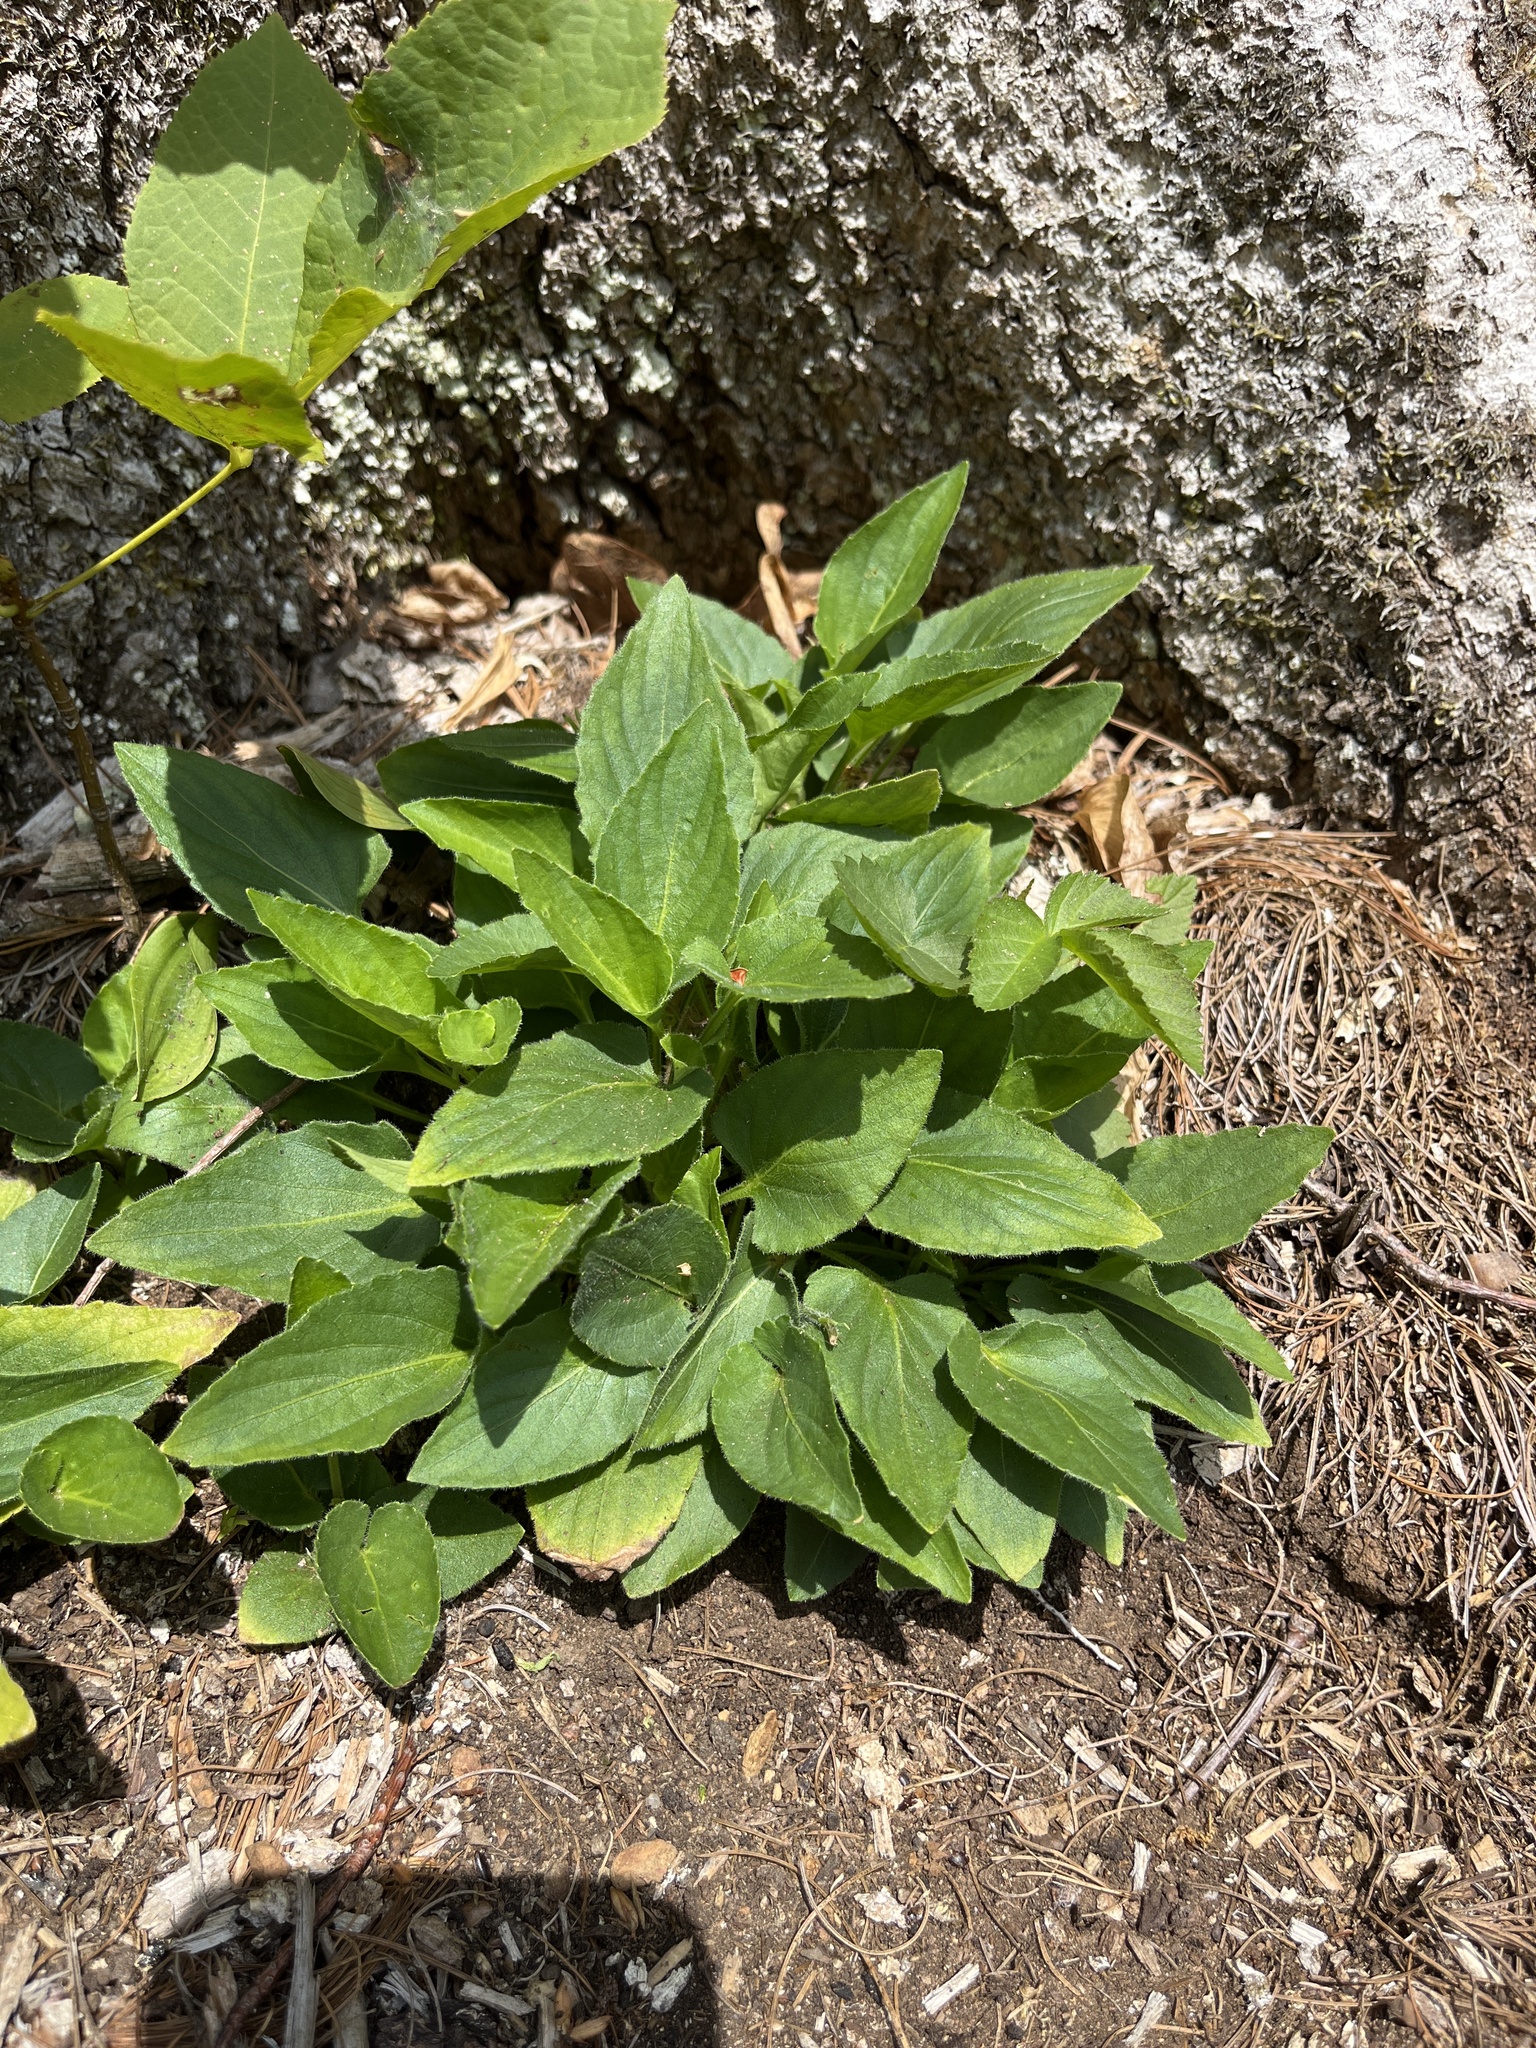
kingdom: Plantae
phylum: Tracheophyta
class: Magnoliopsida
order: Malpighiales
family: Violaceae
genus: Viola
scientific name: Viola sagittata
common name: Arrowhead violet
